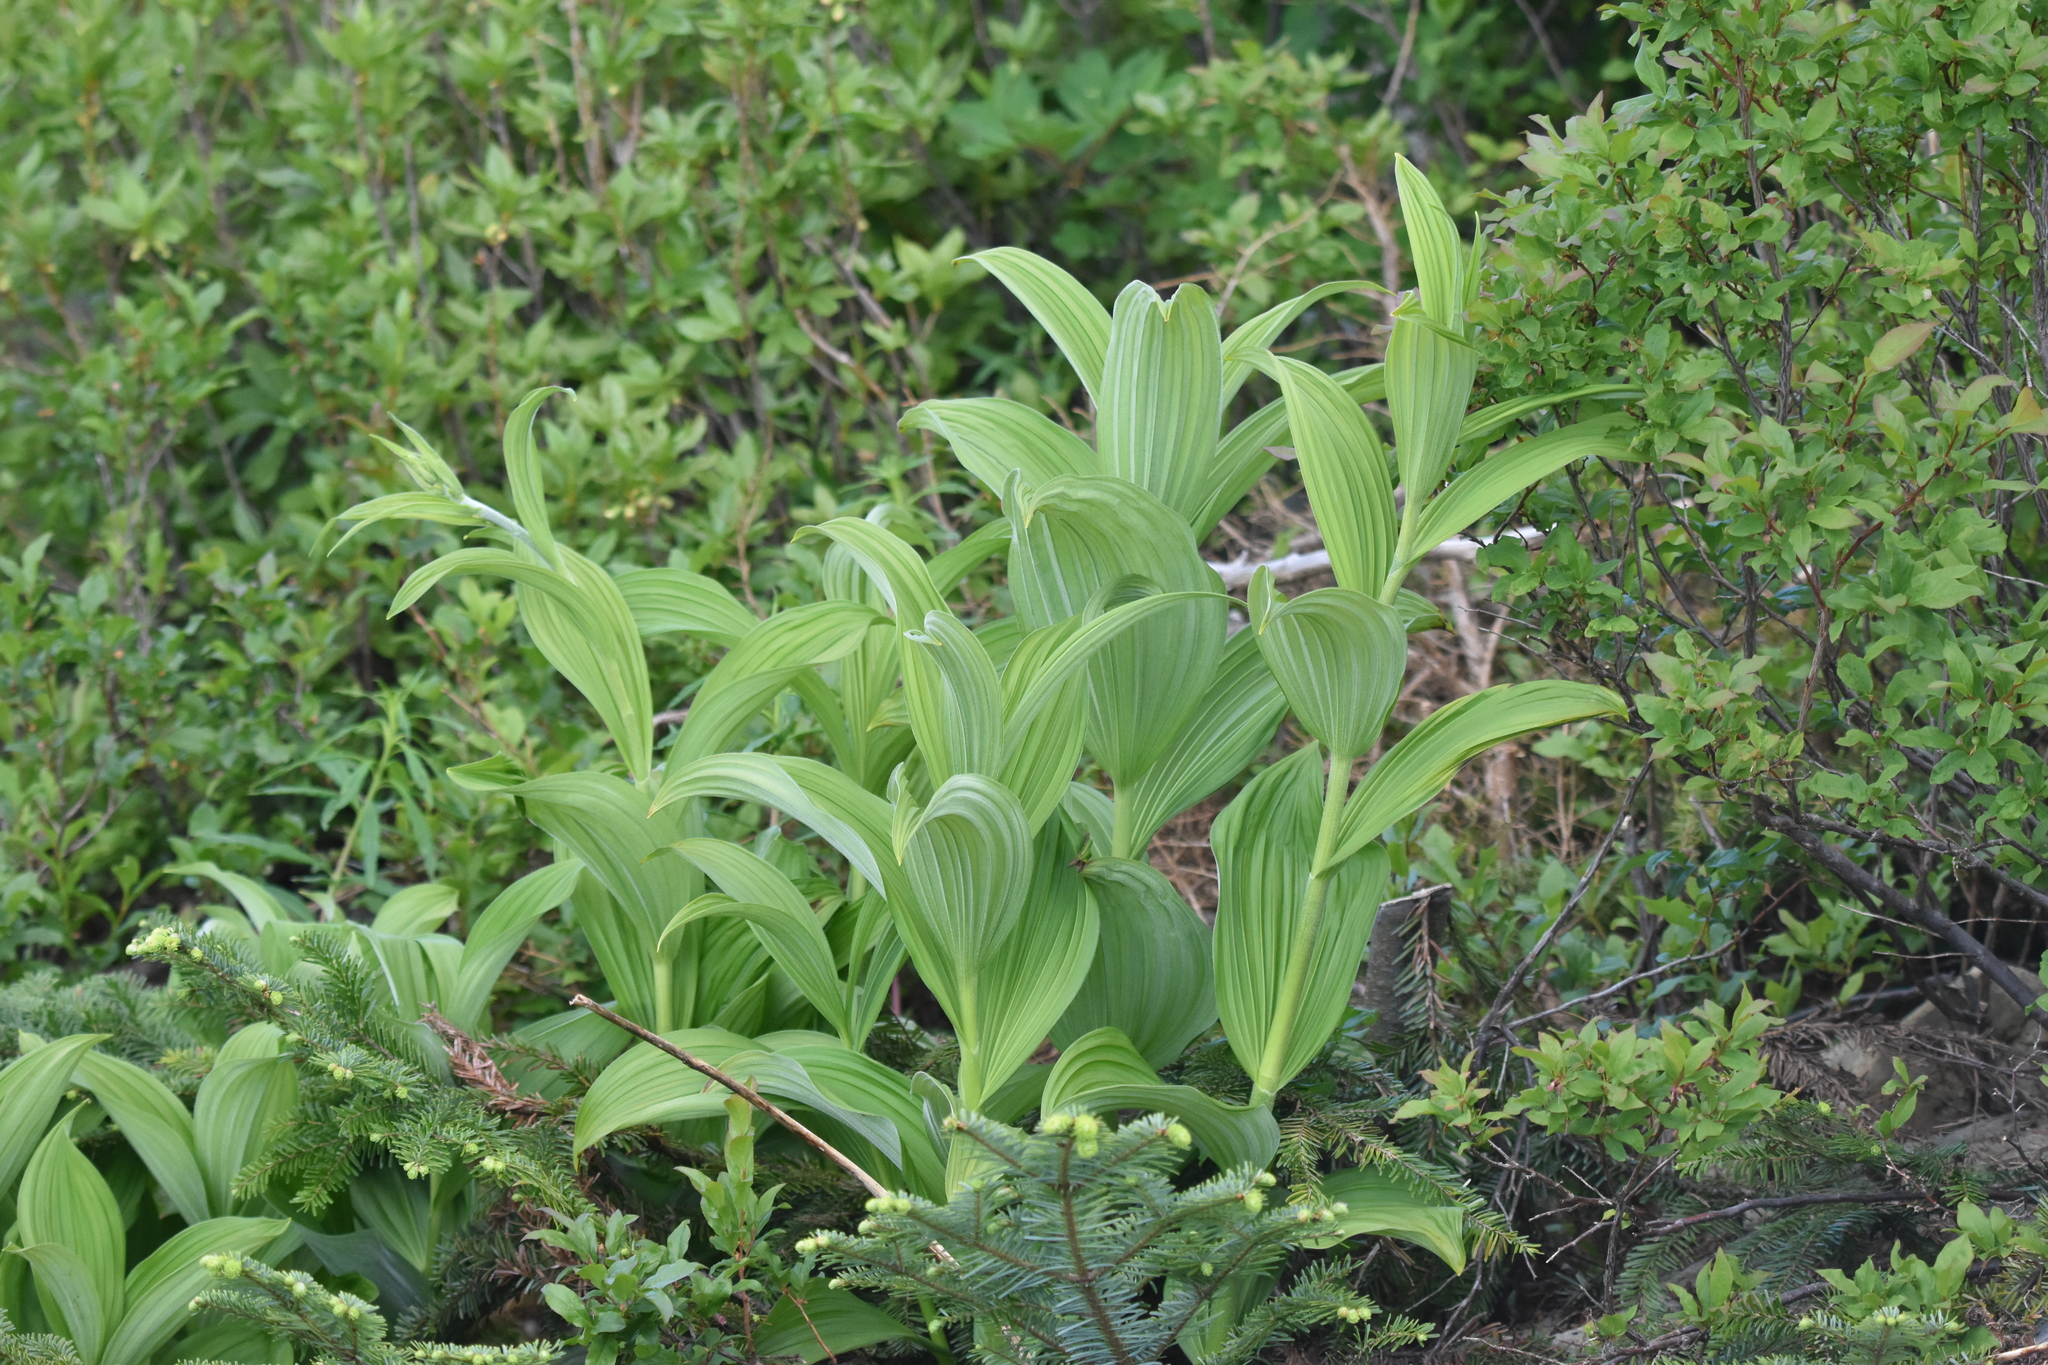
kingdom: Plantae
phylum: Tracheophyta
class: Liliopsida
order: Liliales
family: Melanthiaceae
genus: Veratrum
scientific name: Veratrum viride
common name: American false hellebore
